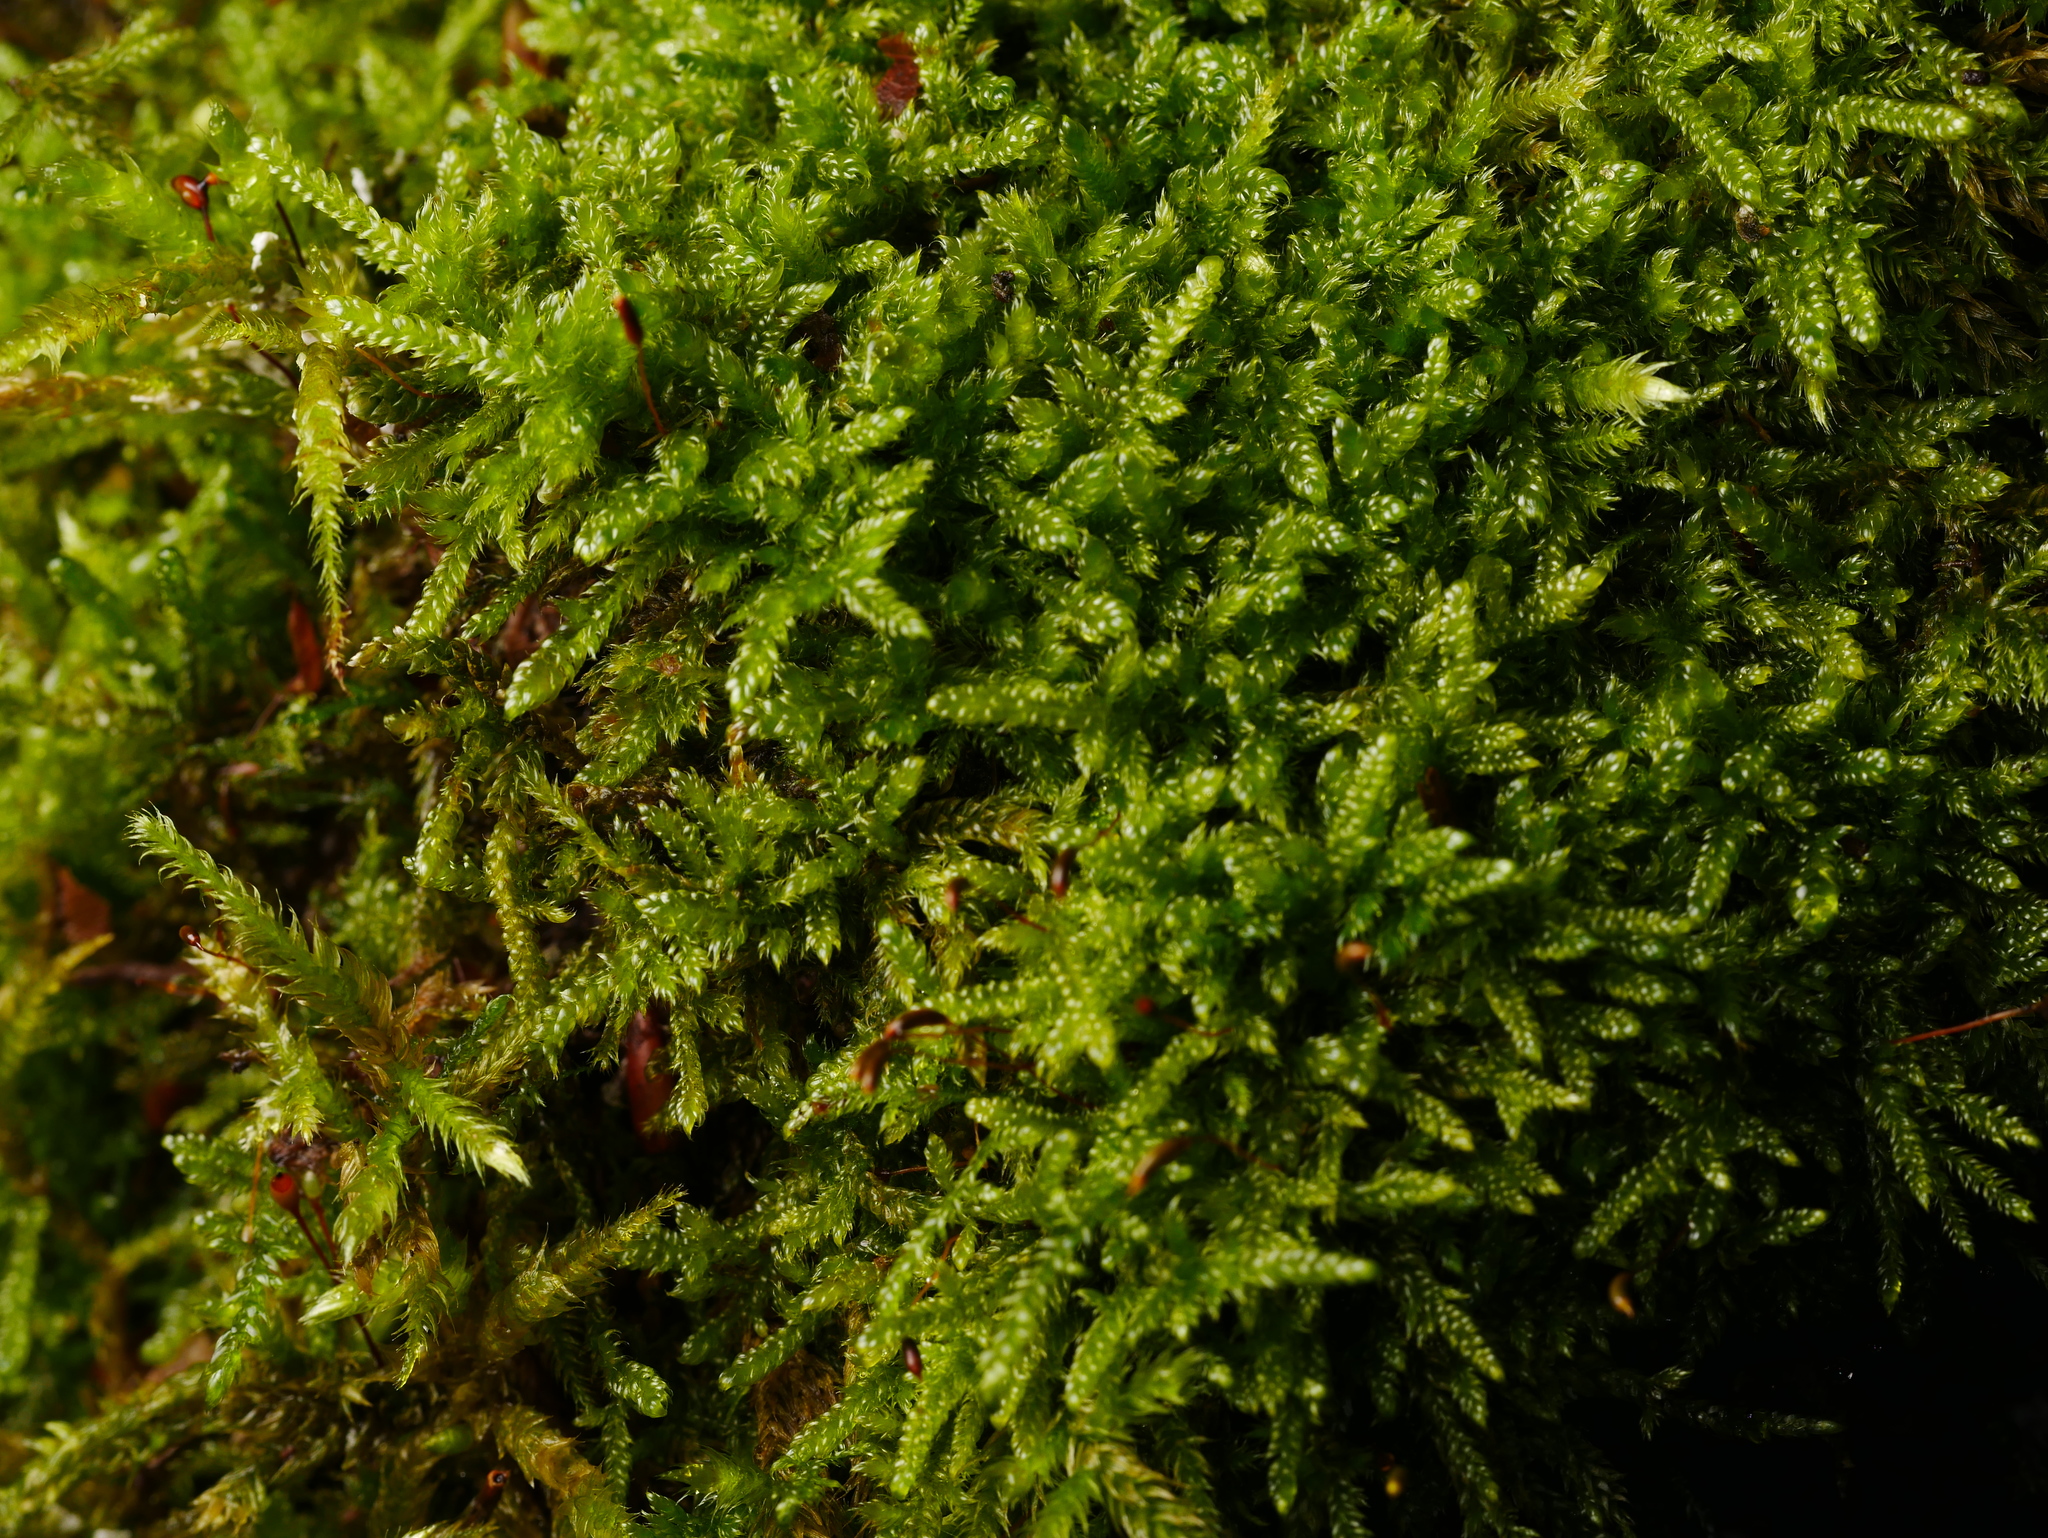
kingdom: Plantae
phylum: Bryophyta
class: Bryopsida
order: Hypnales
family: Hypnaceae
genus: Hypnum
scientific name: Hypnum cupressiforme
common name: Cypress-leaved plait-moss
